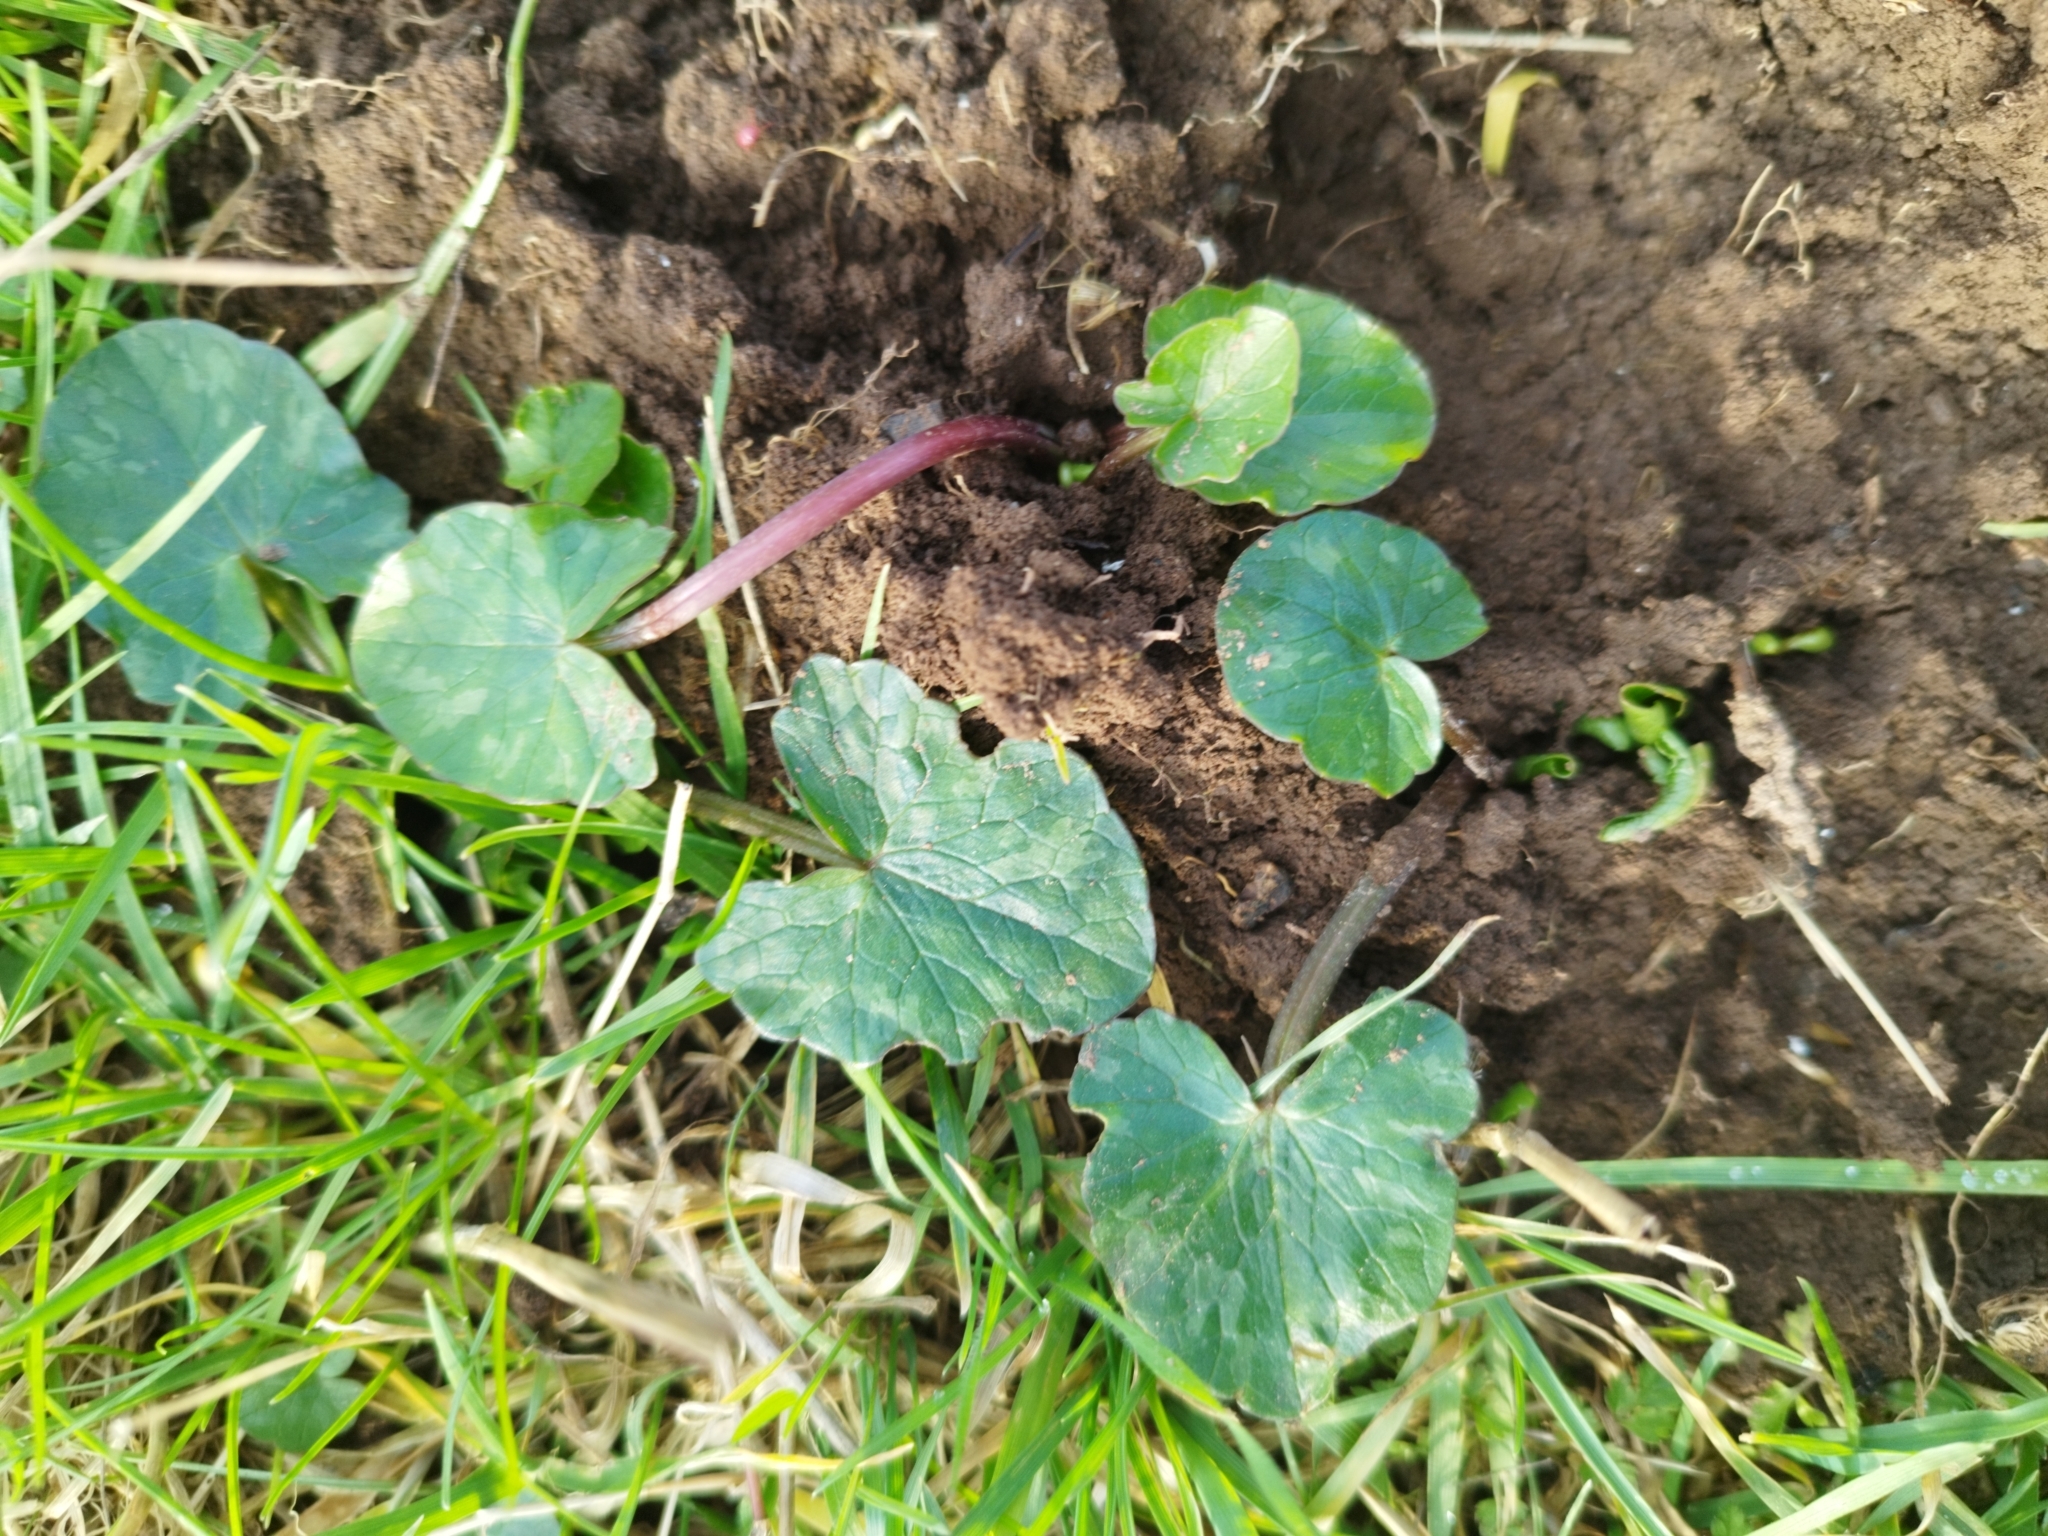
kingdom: Plantae
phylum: Tracheophyta
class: Magnoliopsida
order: Ranunculales
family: Ranunculaceae
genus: Ficaria
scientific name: Ficaria verna
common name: Lesser celandine
